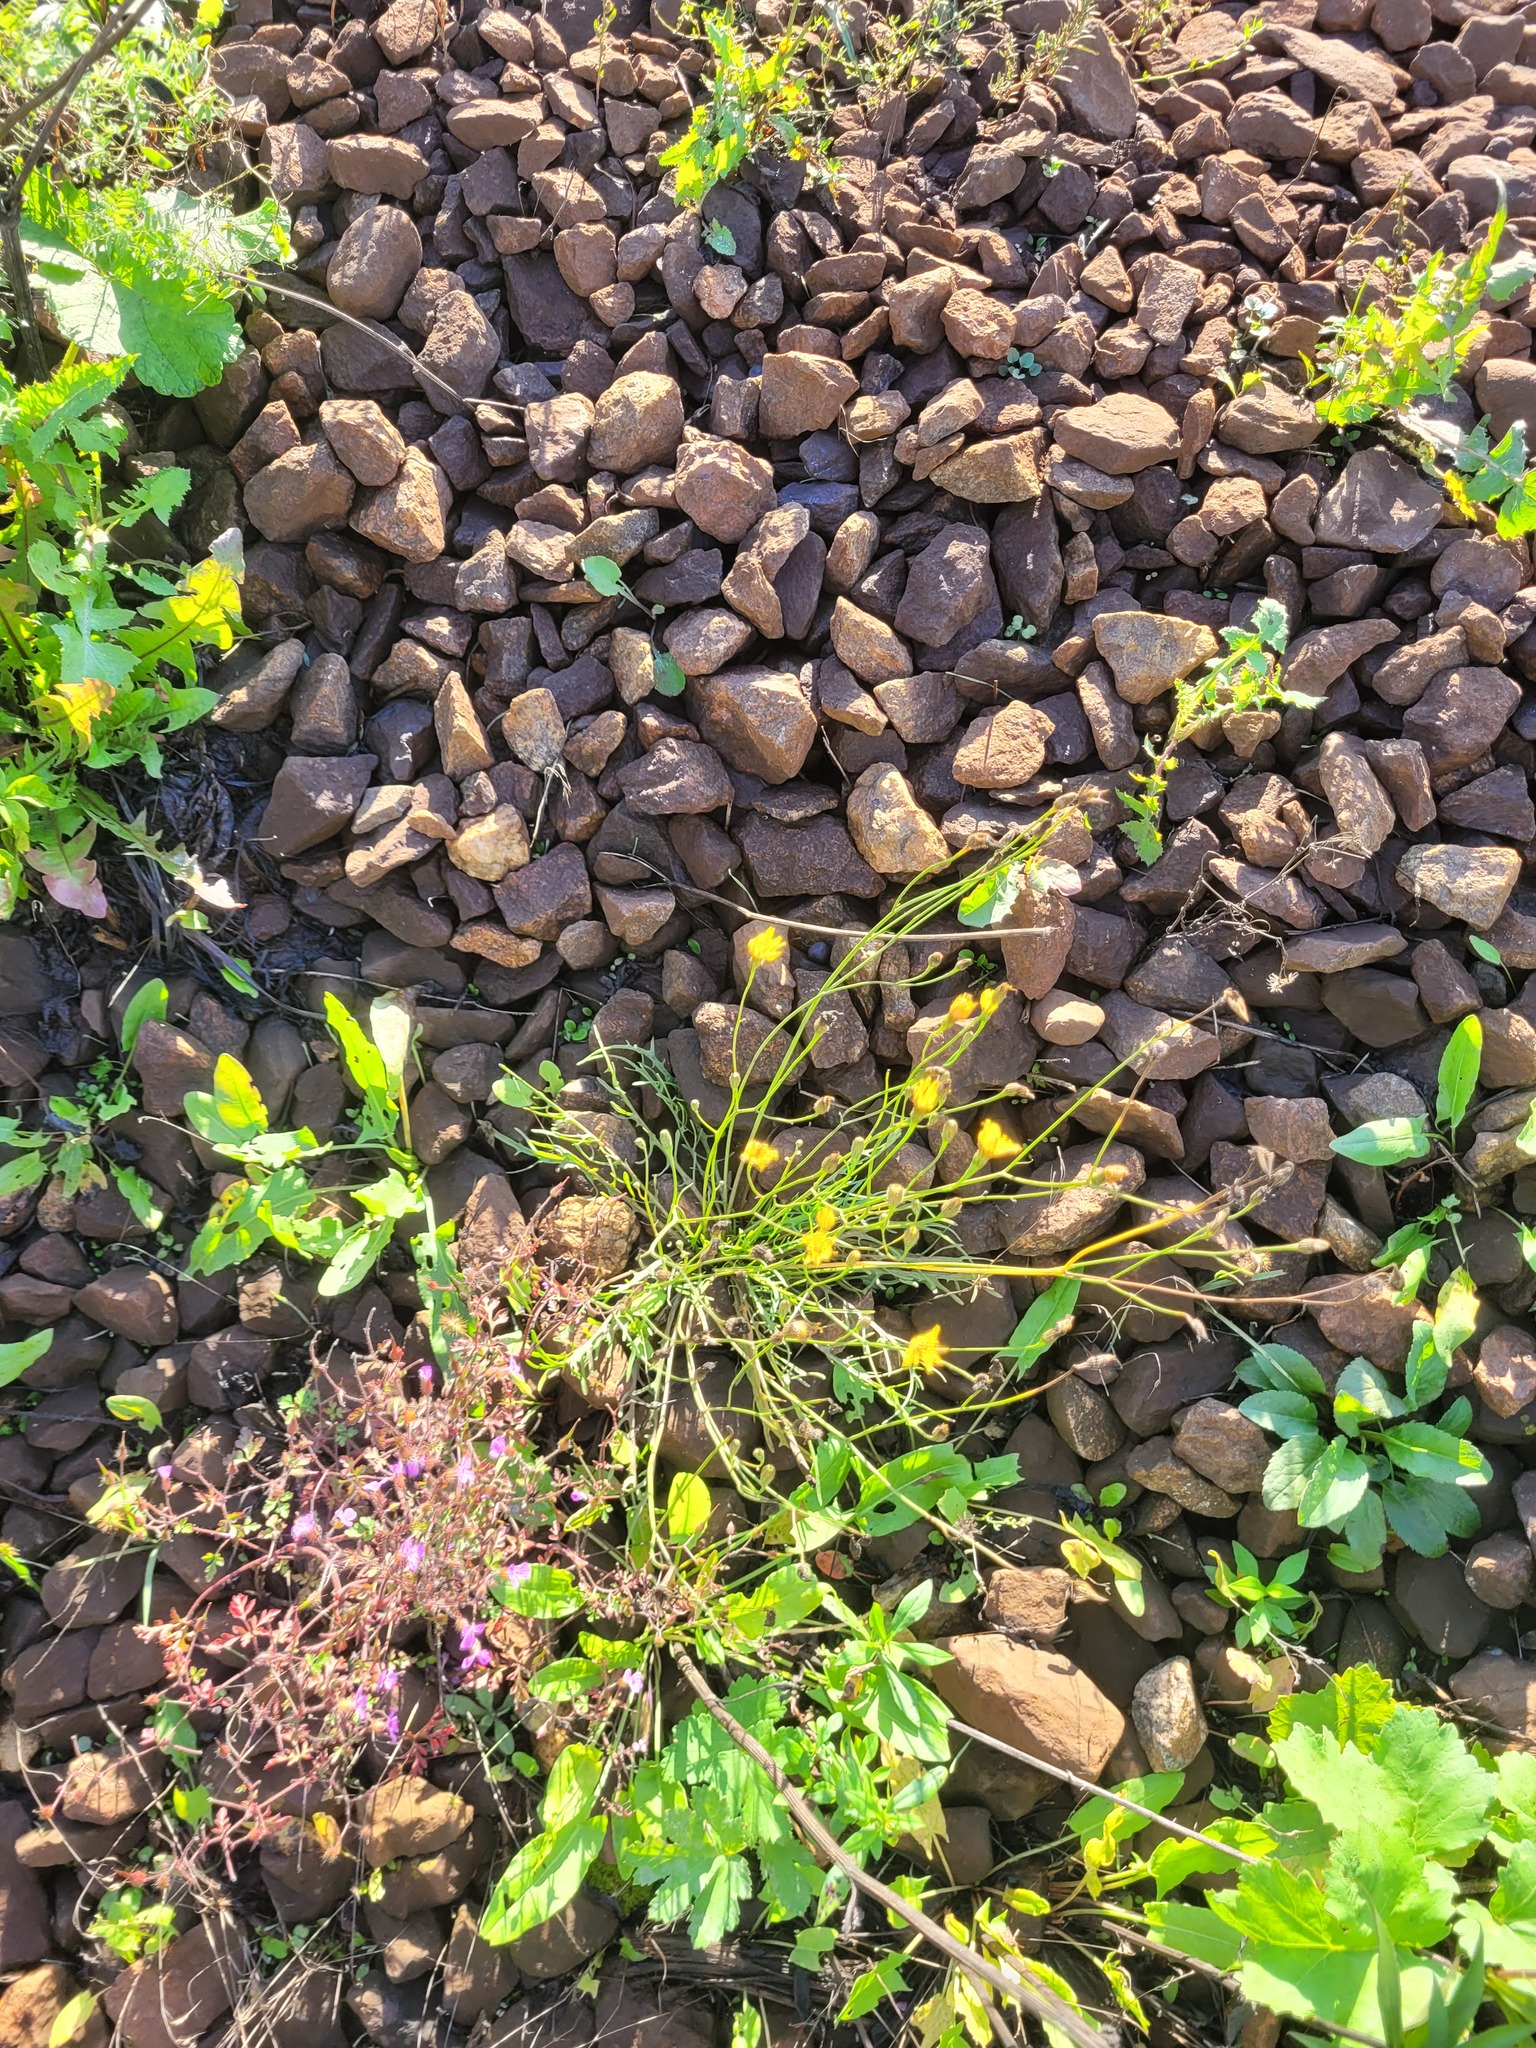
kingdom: Plantae
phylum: Tracheophyta
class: Magnoliopsida
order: Asterales
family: Asteraceae
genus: Scorzoneroides
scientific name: Scorzoneroides autumnalis
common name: Autumn hawkbit
